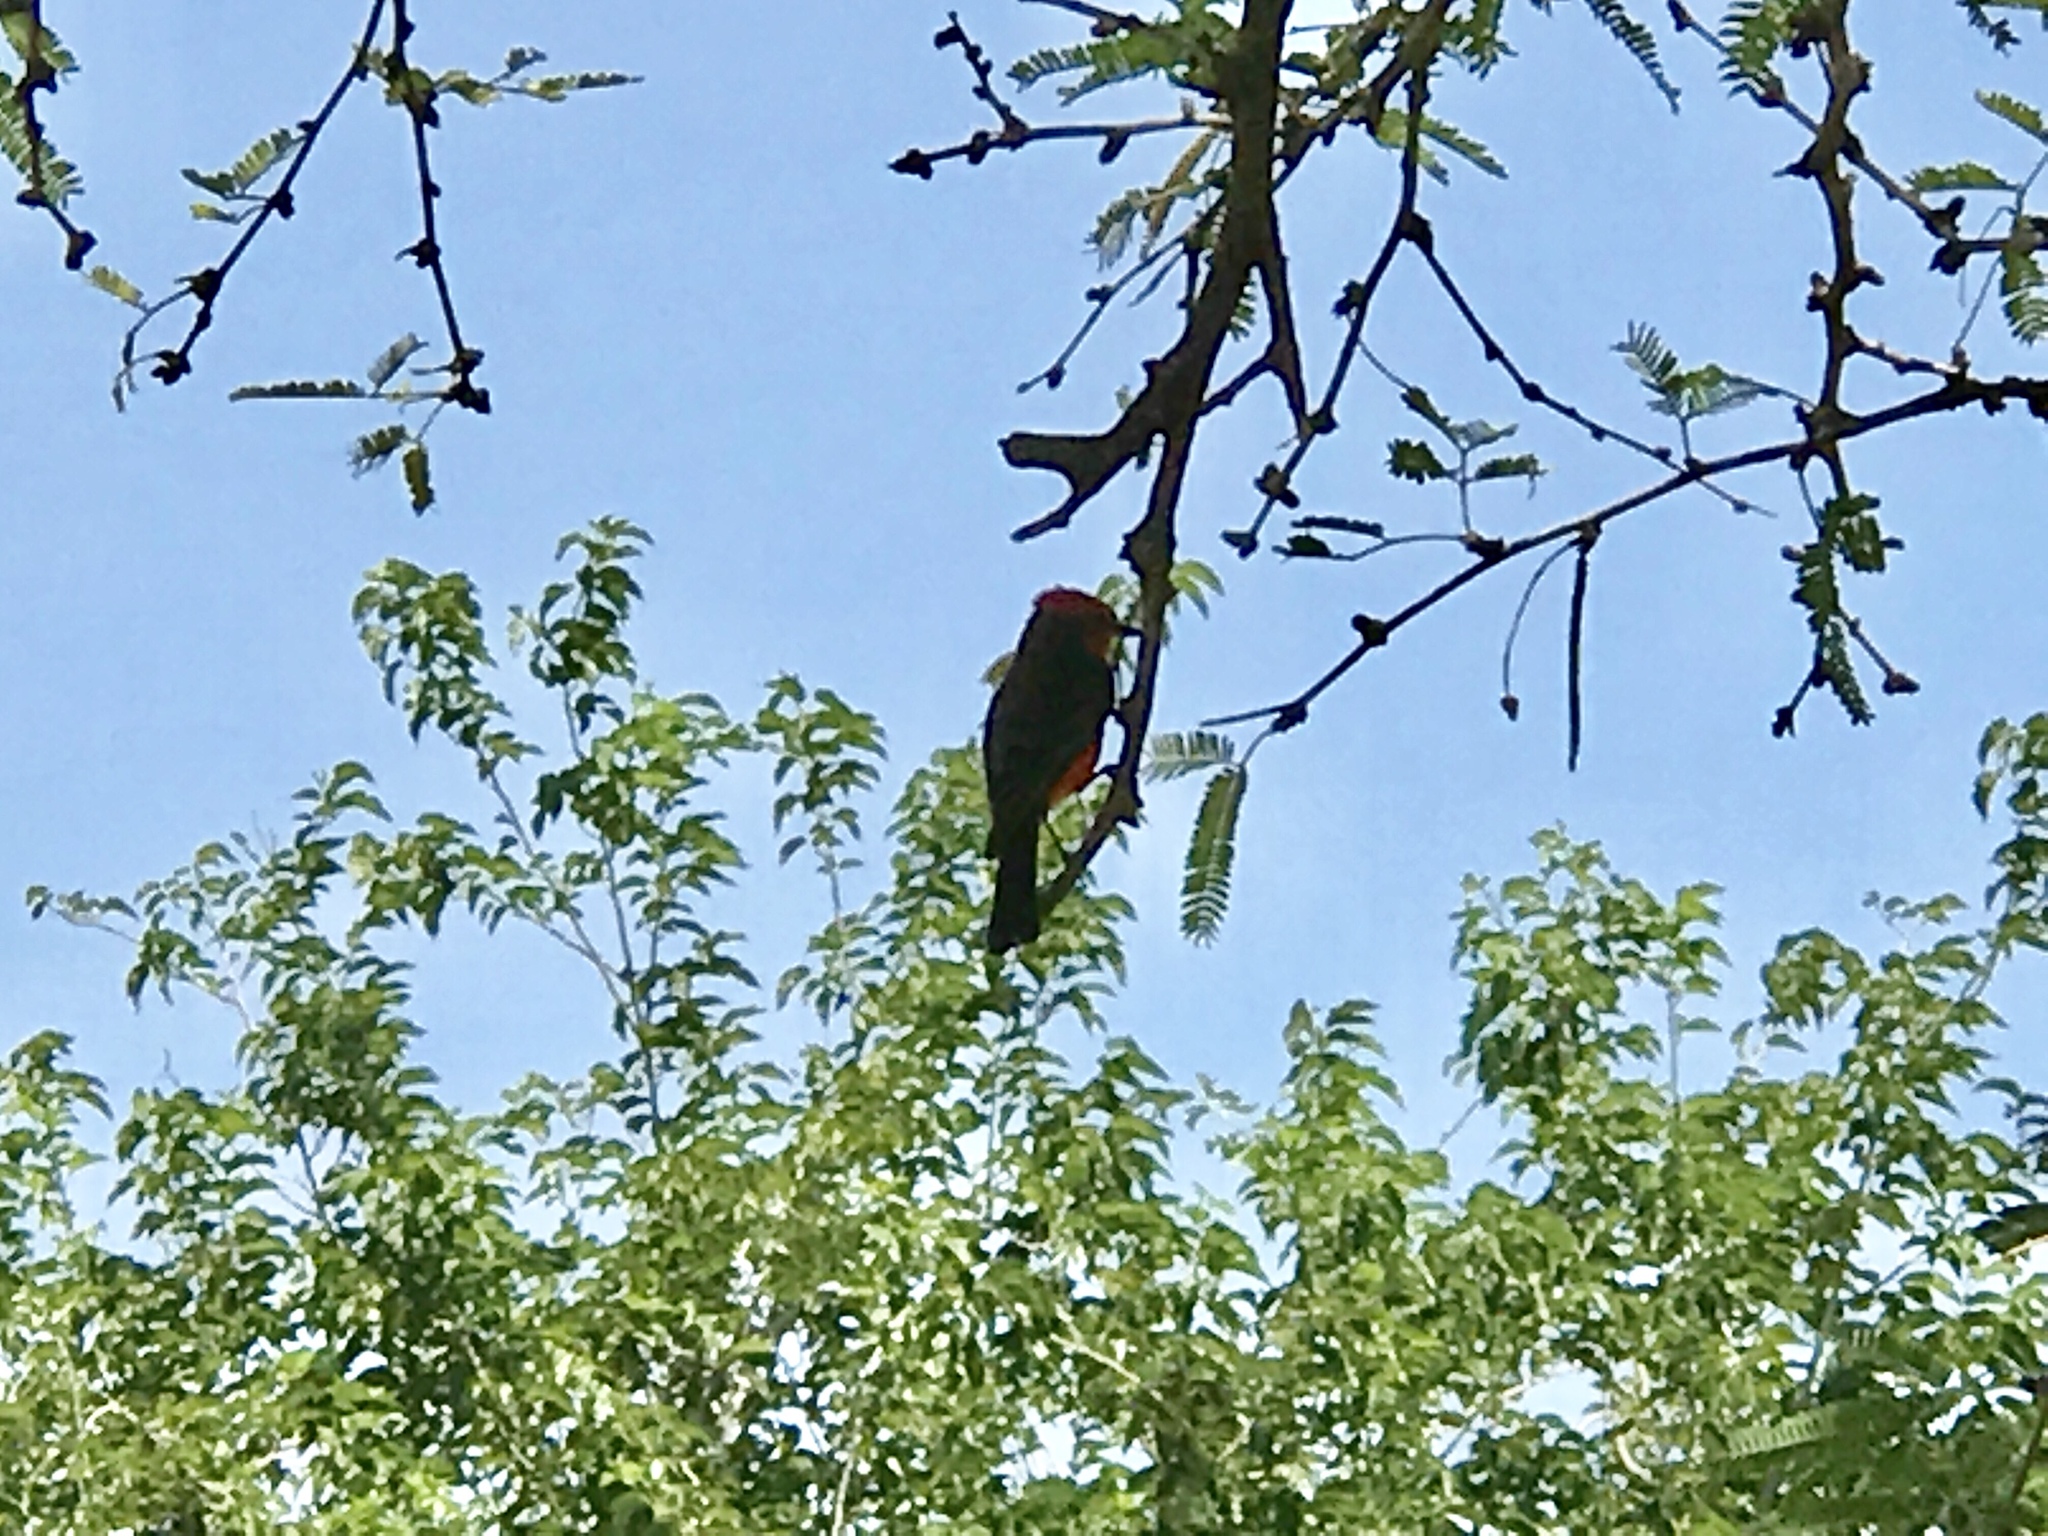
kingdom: Animalia
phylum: Chordata
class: Aves
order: Passeriformes
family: Tyrannidae
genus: Pyrocephalus
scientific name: Pyrocephalus rubinus
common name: Vermilion flycatcher
